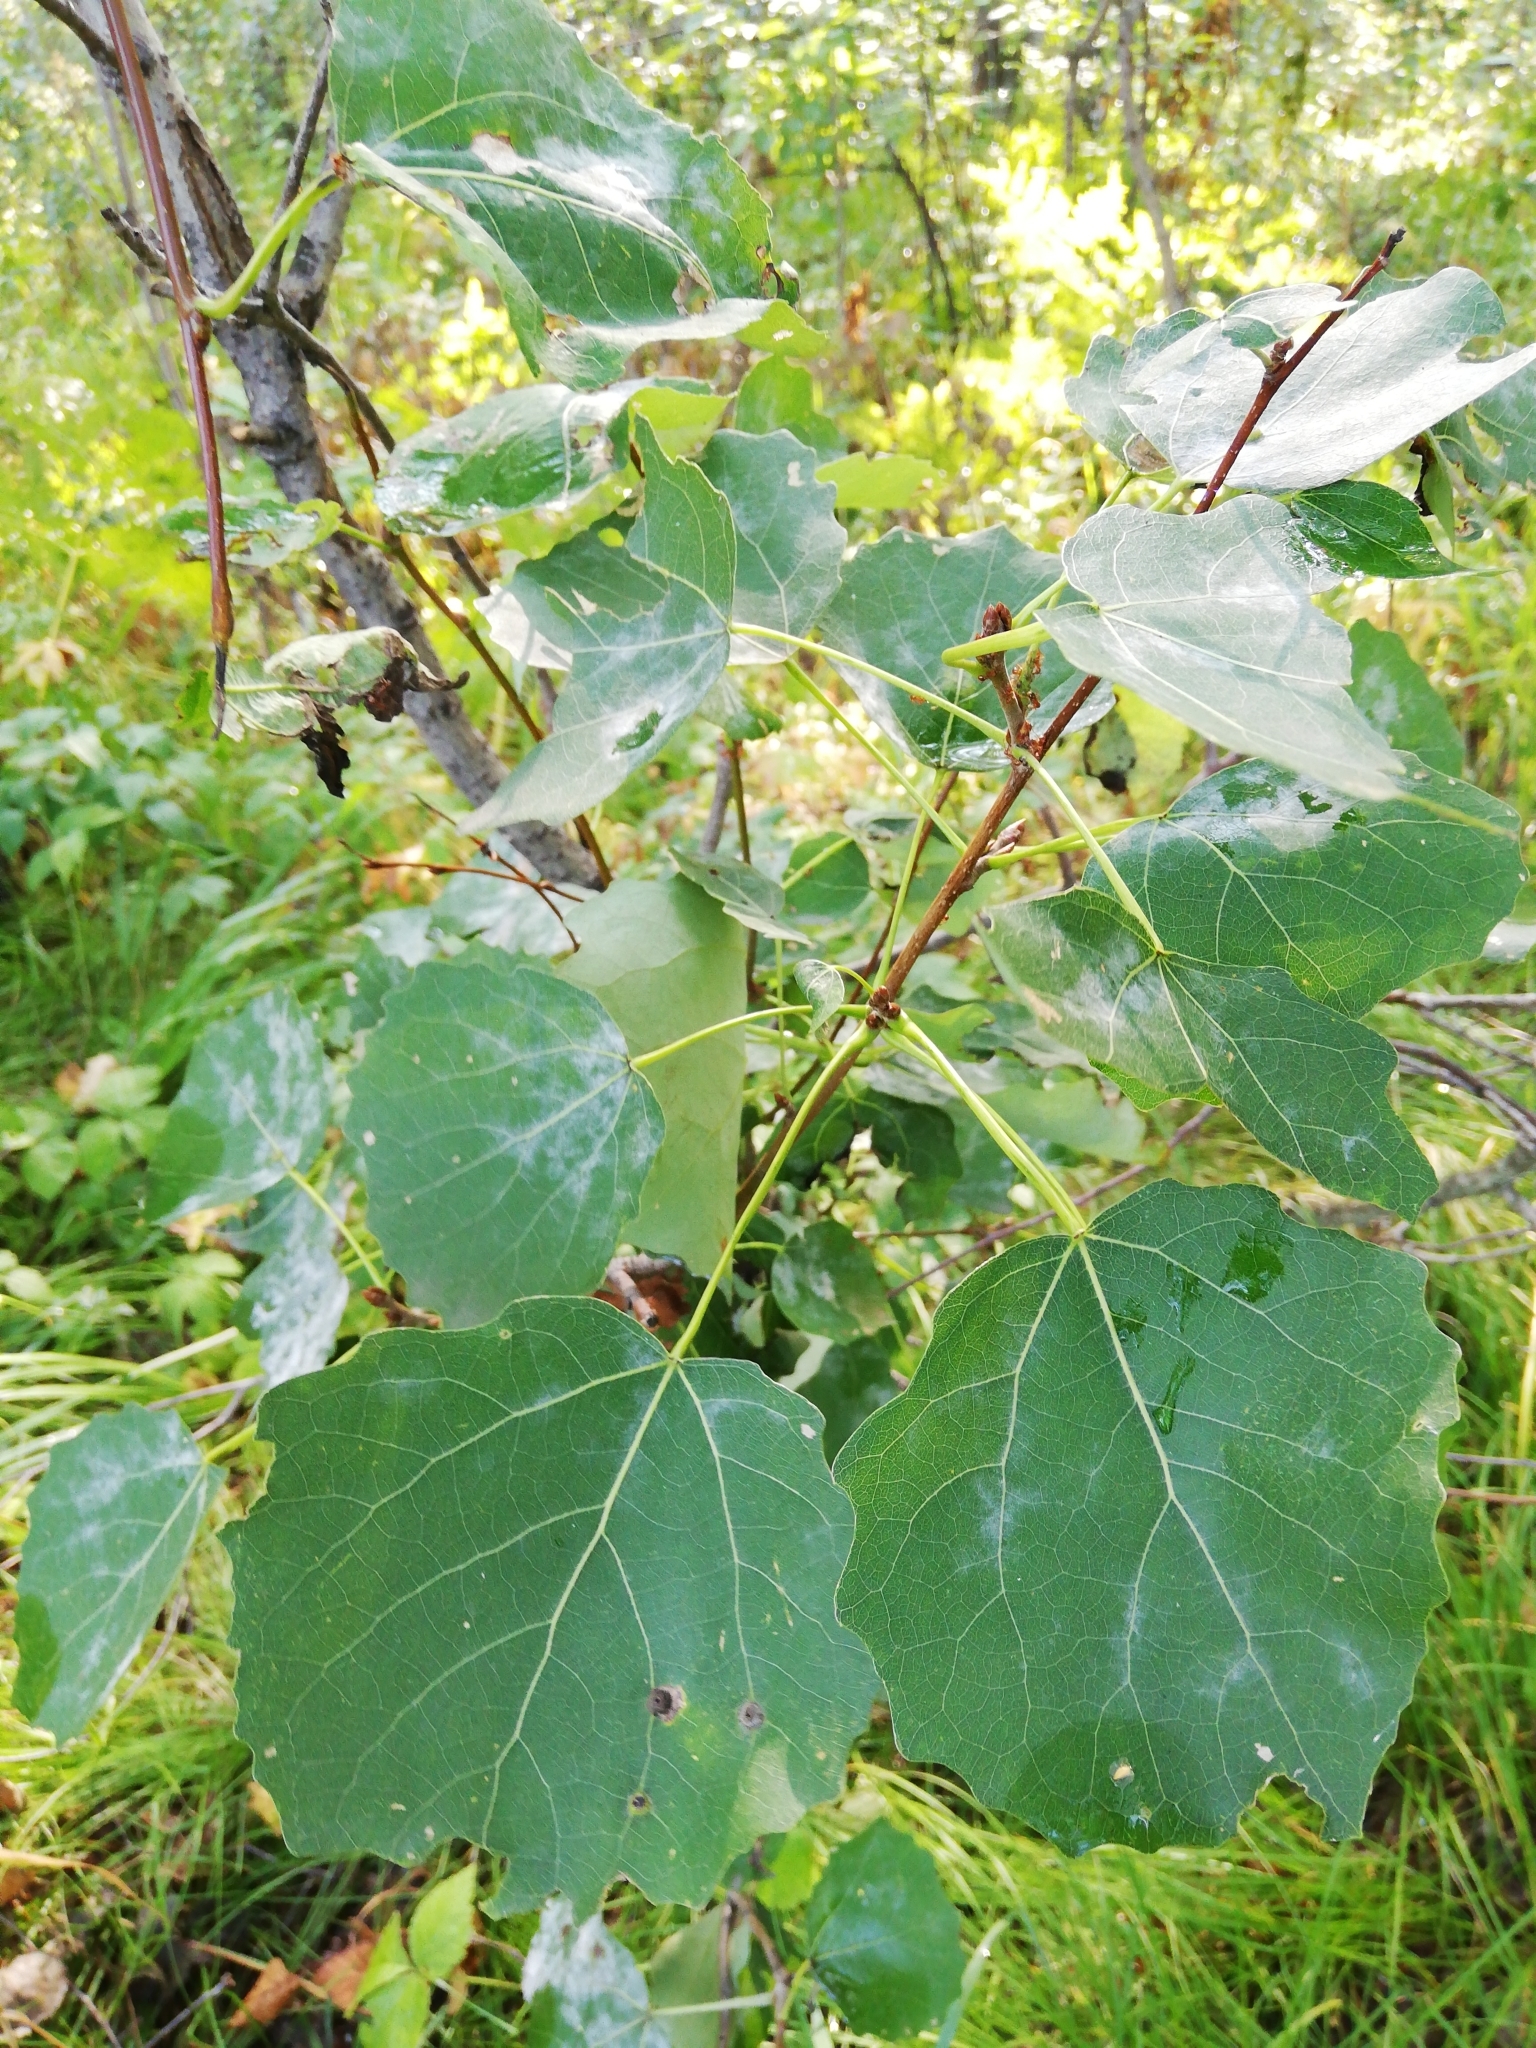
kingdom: Plantae
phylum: Tracheophyta
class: Magnoliopsida
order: Malpighiales
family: Salicaceae
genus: Populus
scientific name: Populus tremula
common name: European aspen
